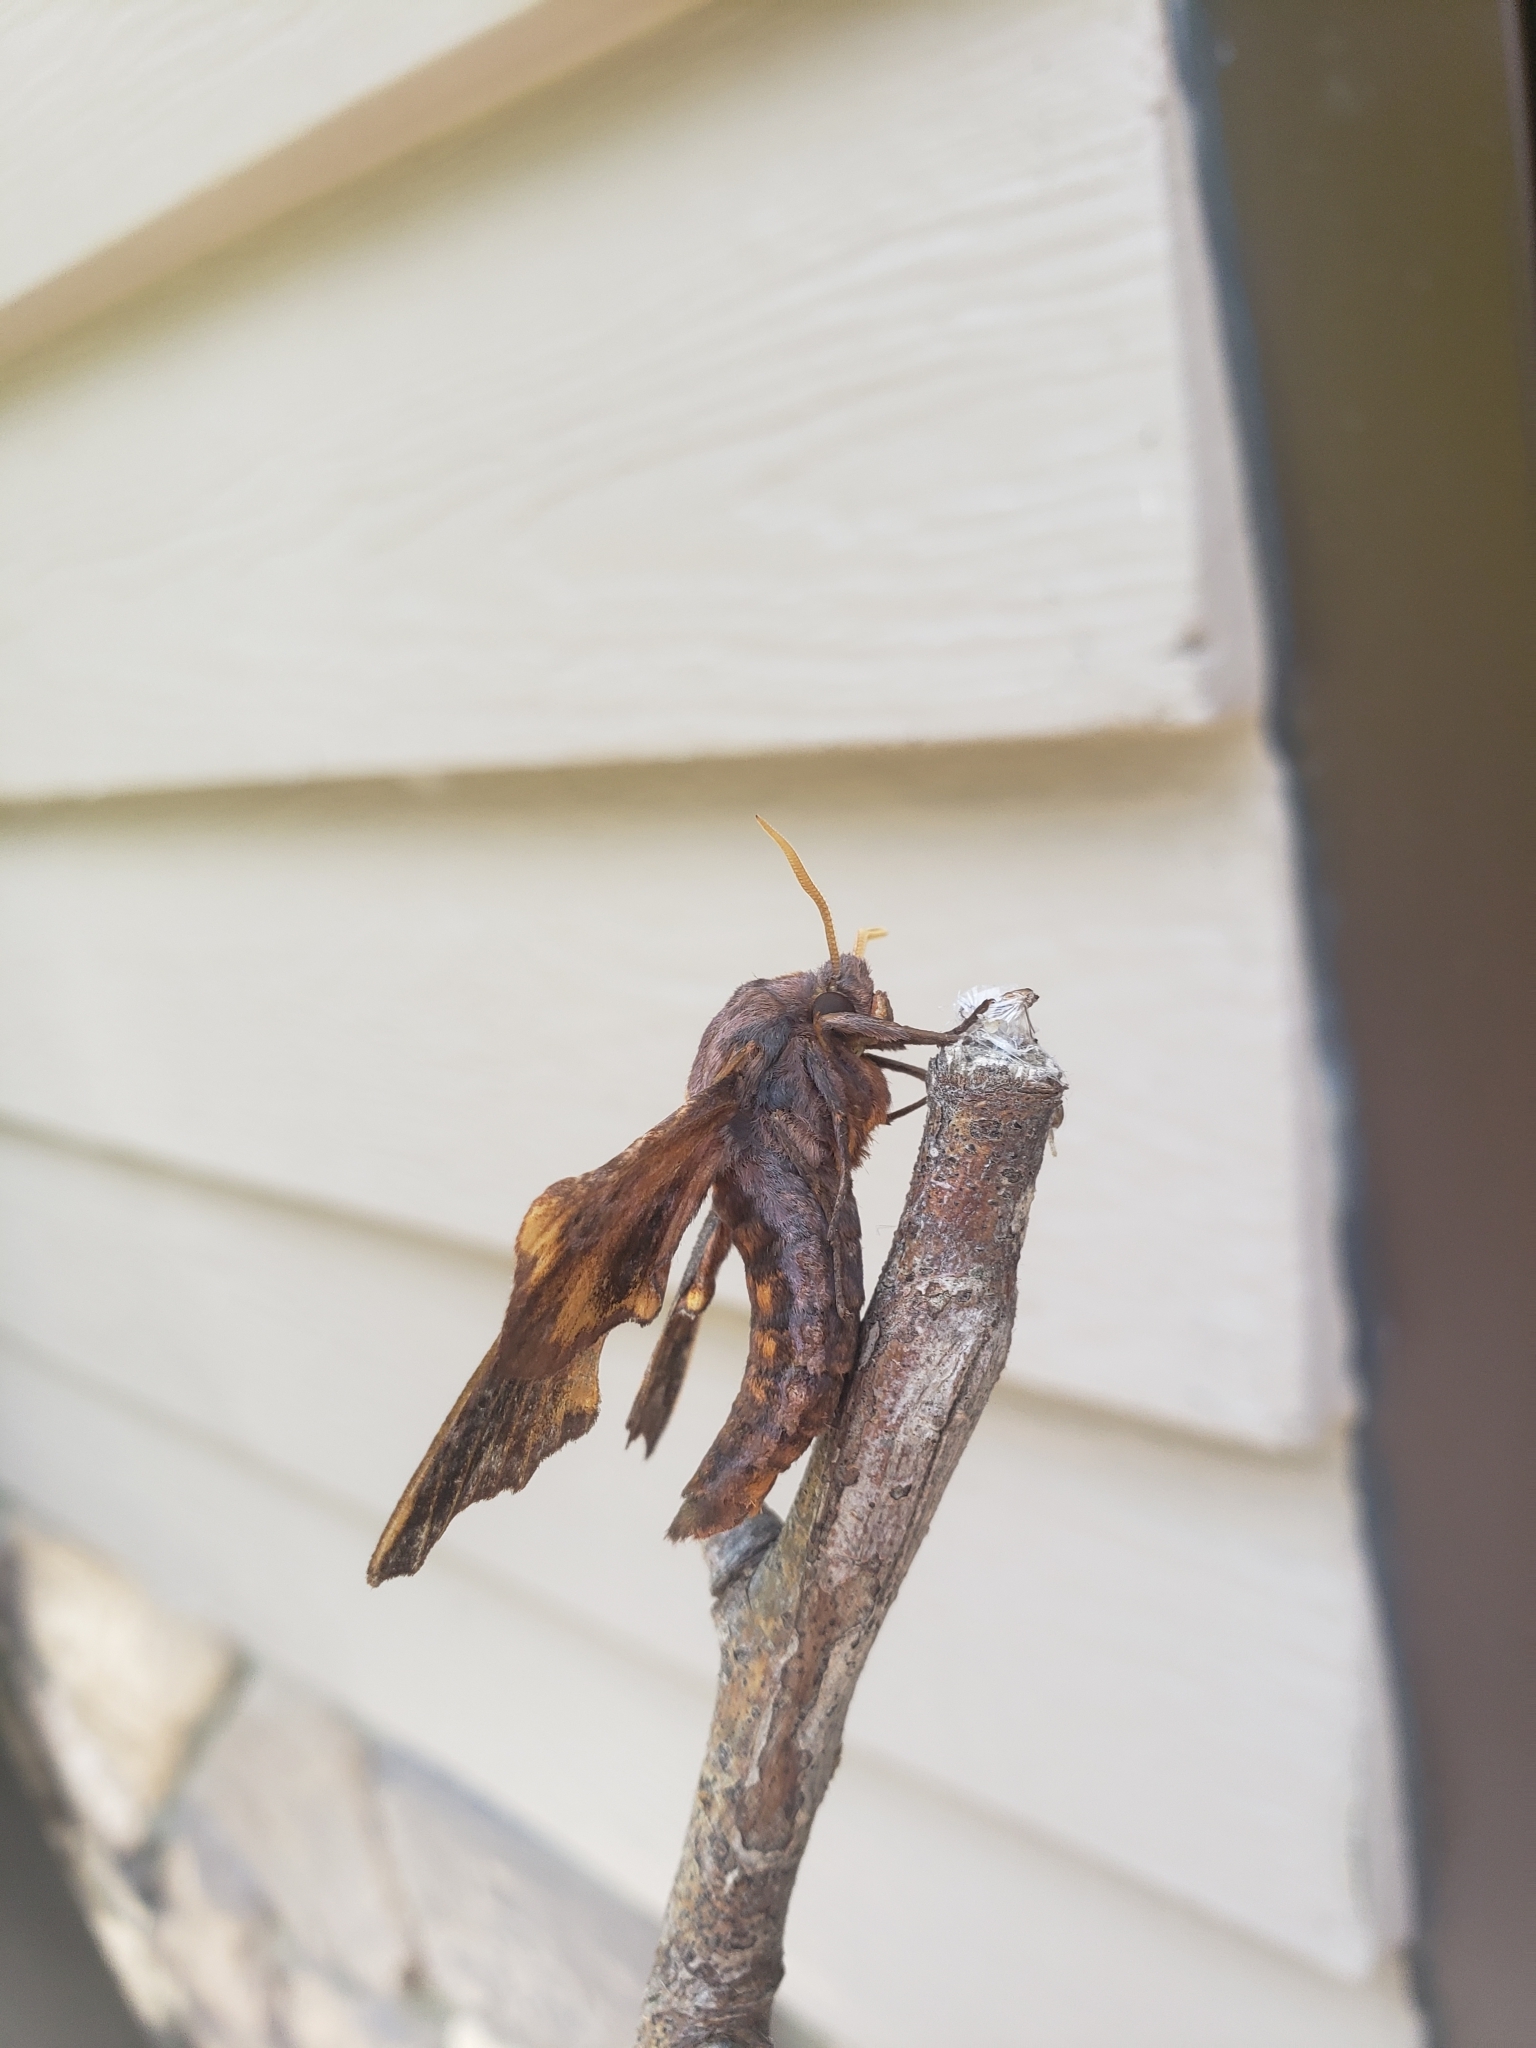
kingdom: Animalia
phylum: Arthropoda
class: Insecta
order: Lepidoptera
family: Sphingidae
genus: Paonias
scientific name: Paonias myops
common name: Small-eyed sphinx
